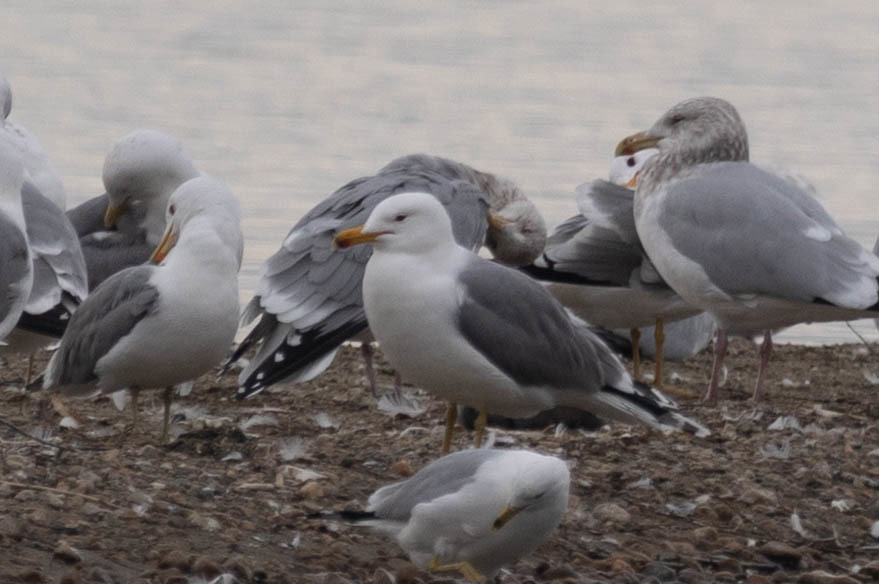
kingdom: Animalia
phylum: Chordata
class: Aves
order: Charadriiformes
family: Laridae
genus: Larus
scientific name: Larus californicus
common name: California gull
